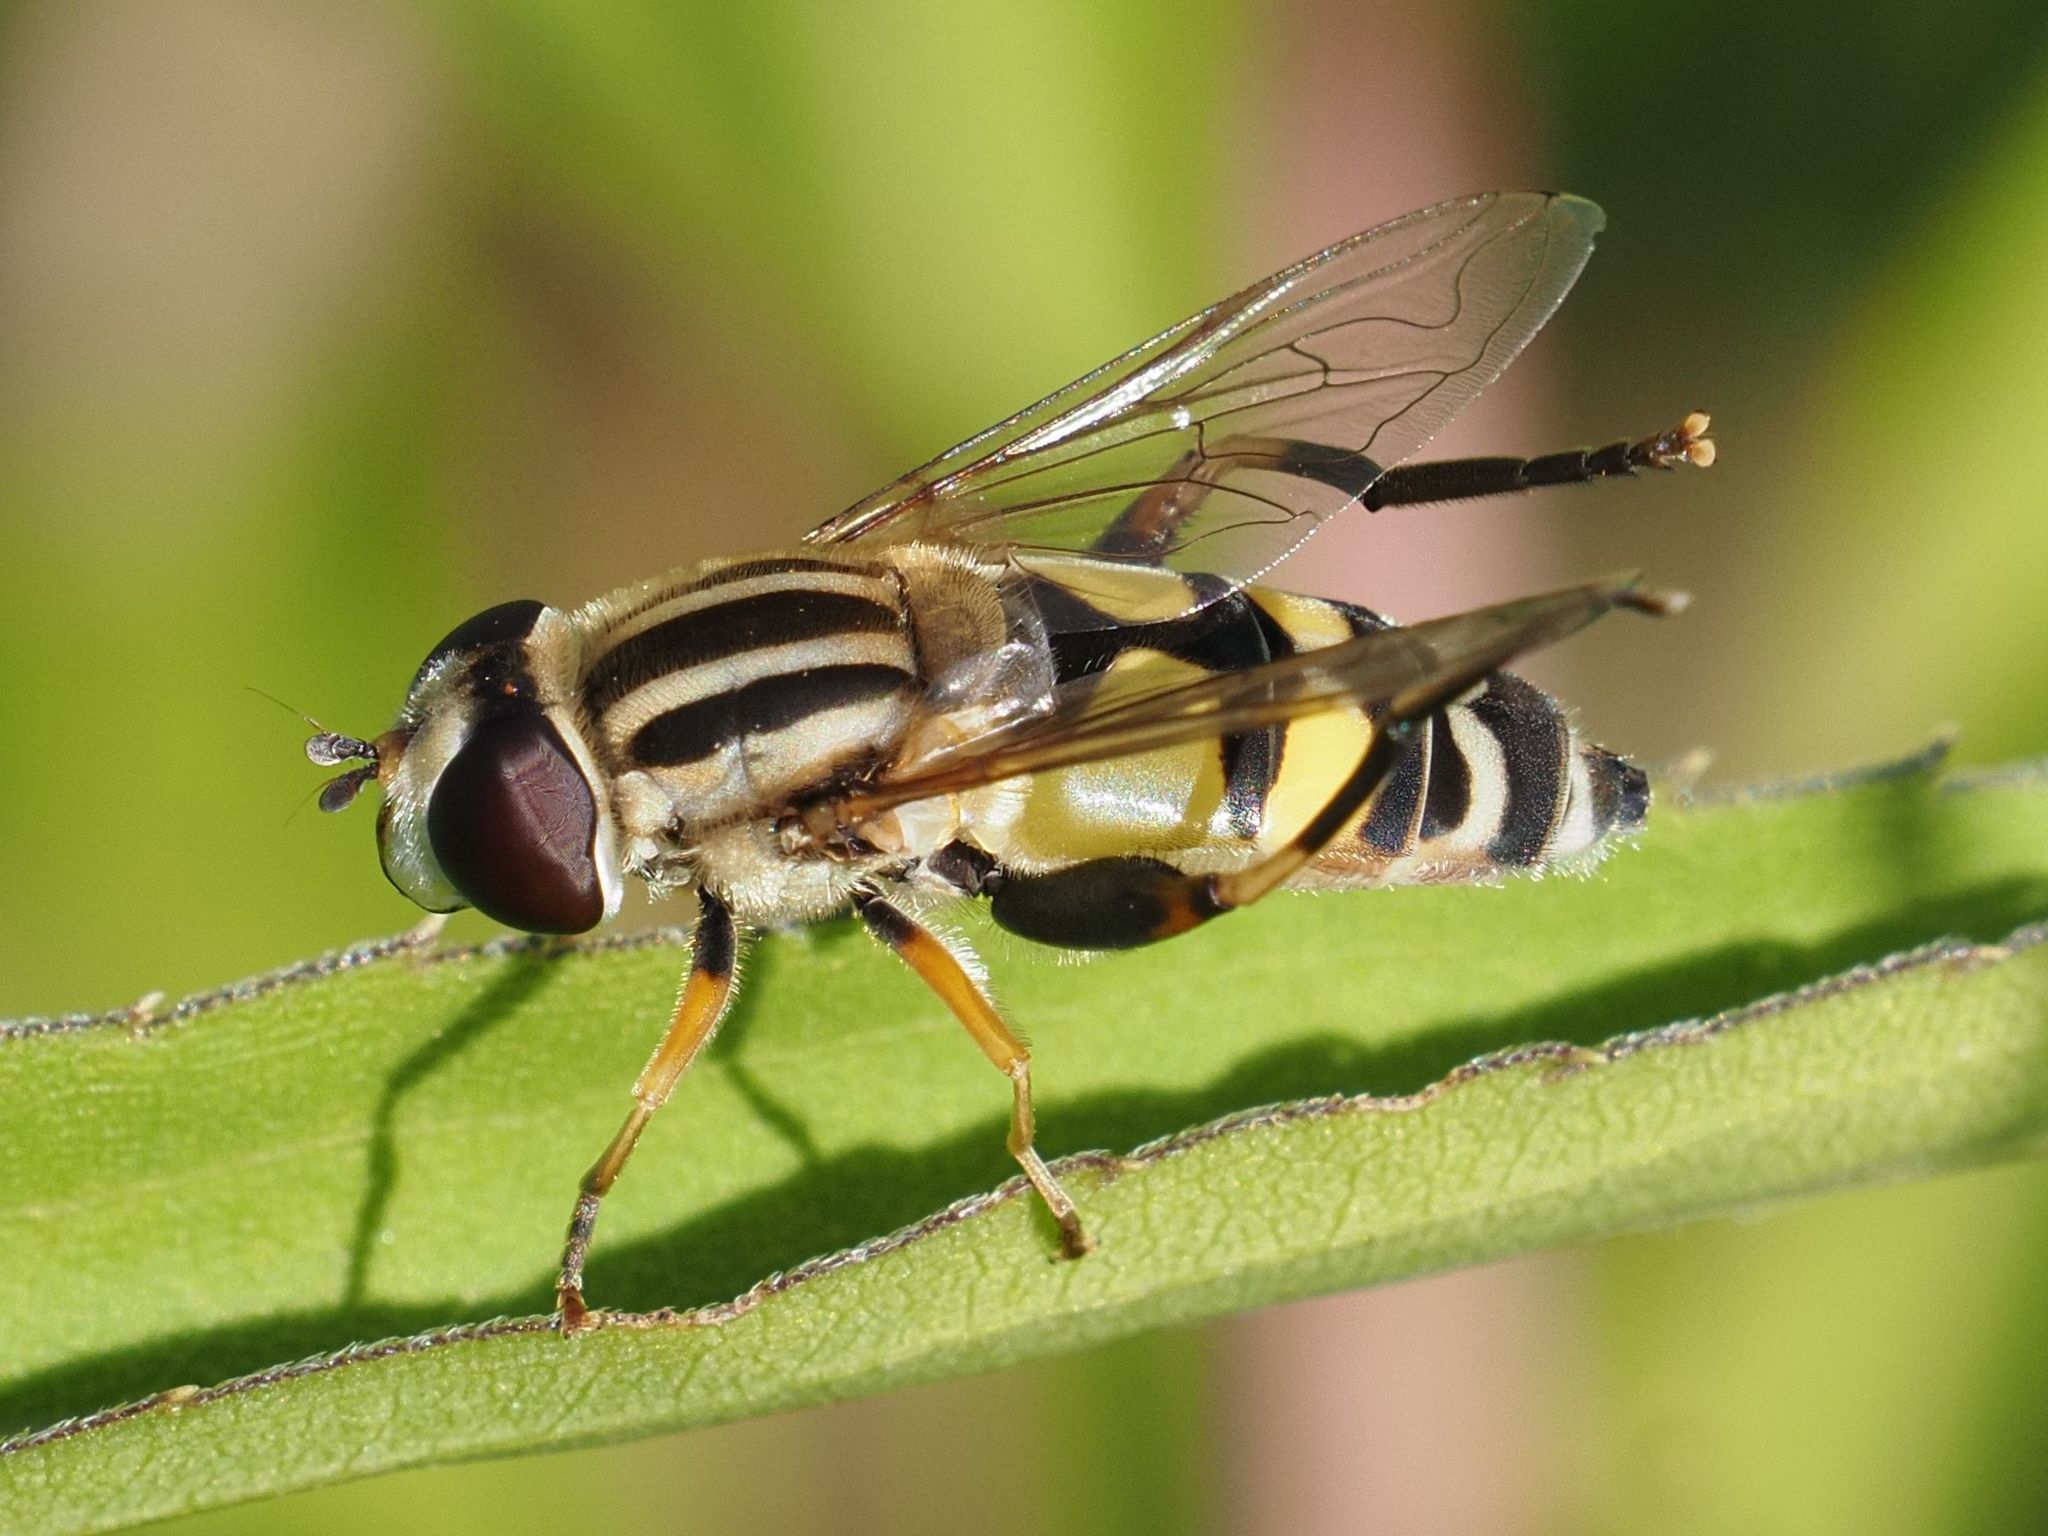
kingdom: Animalia
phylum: Arthropoda
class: Insecta
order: Diptera
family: Syrphidae
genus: Helophilus
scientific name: Helophilus trivittatus
